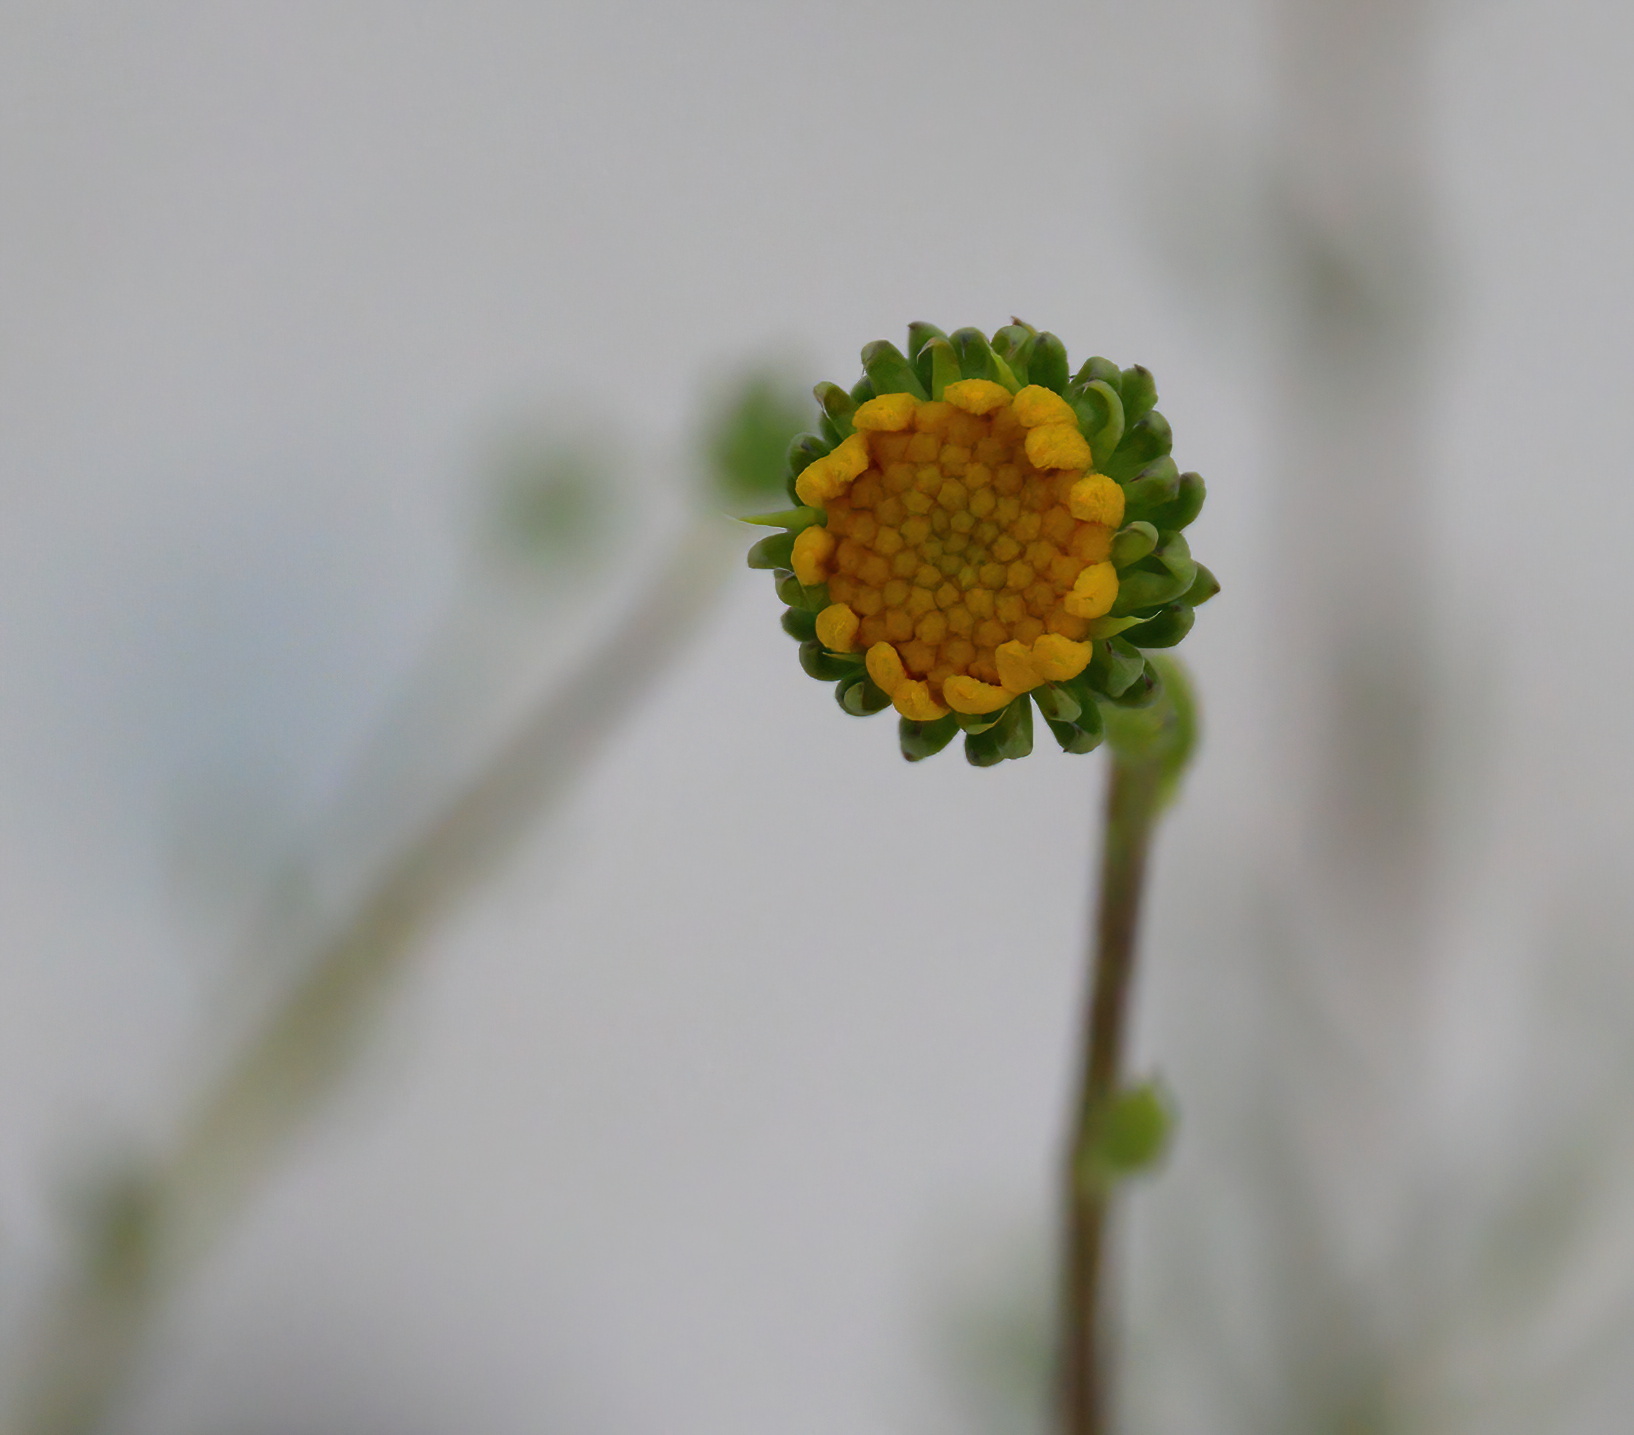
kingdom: Plantae
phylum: Tracheophyta
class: Magnoliopsida
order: Asterales
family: Asteraceae
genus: Balduina
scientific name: Balduina angustifolia
